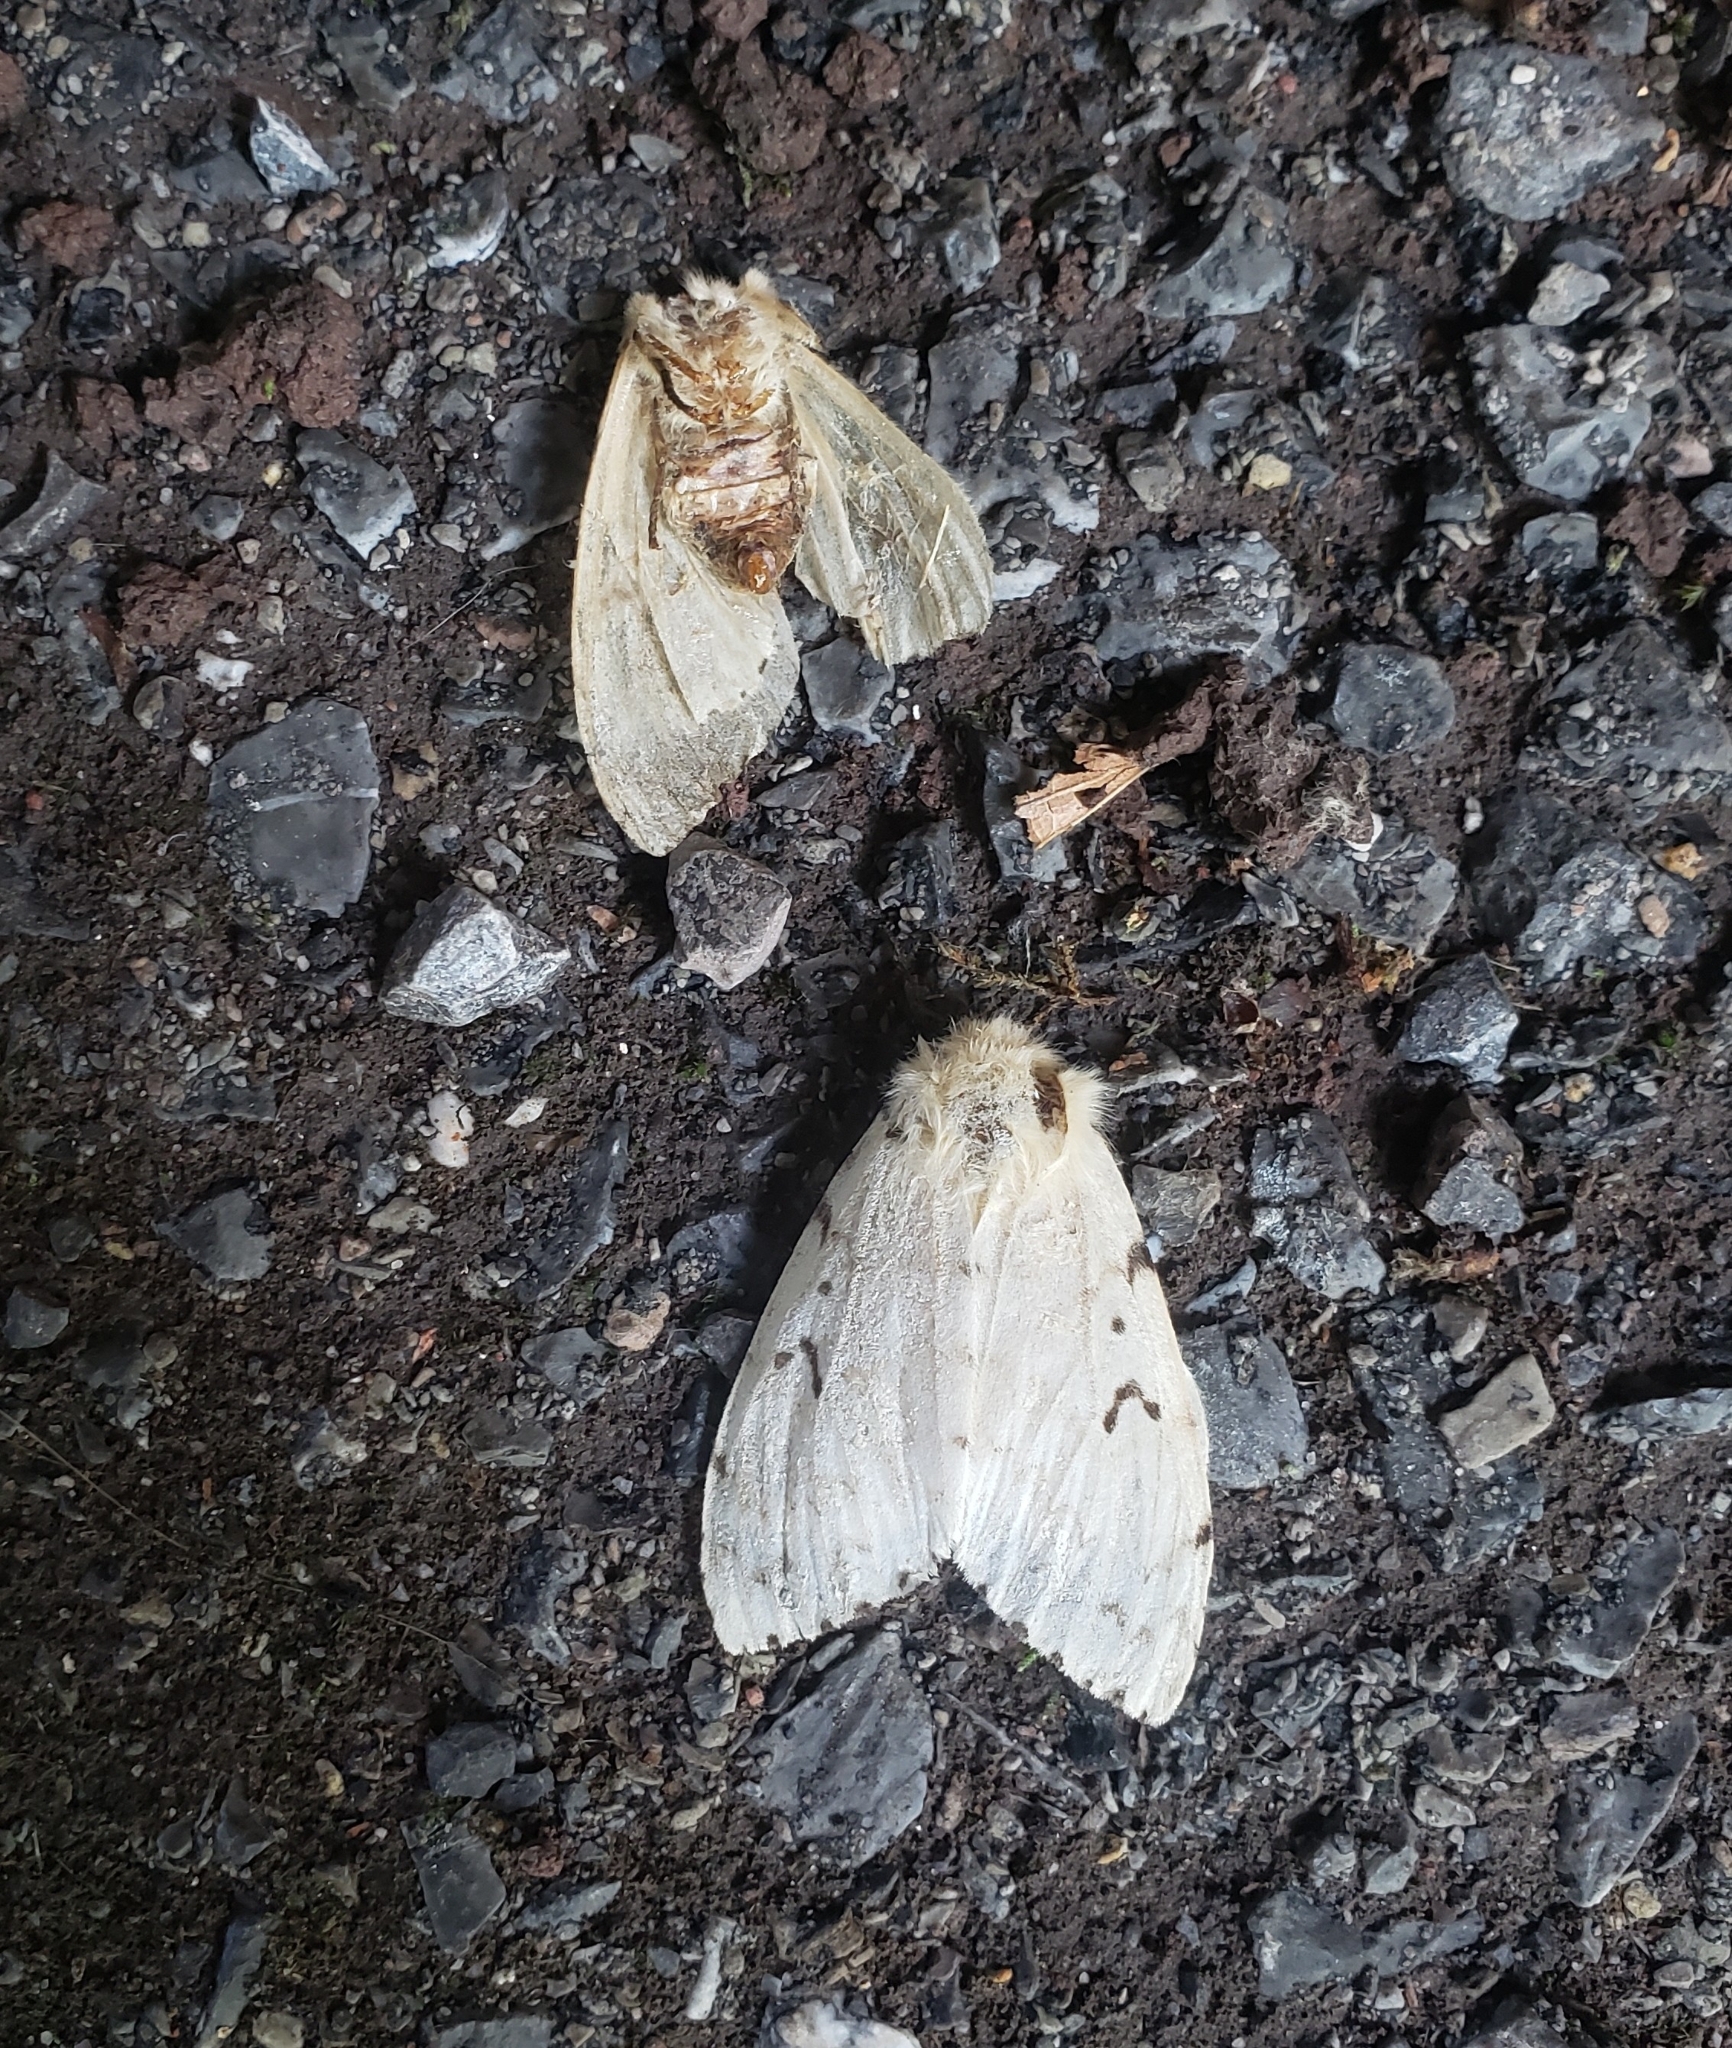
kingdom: Animalia
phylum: Arthropoda
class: Insecta
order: Lepidoptera
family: Erebidae
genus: Lymantria
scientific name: Lymantria dispar
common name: Gypsy moth
